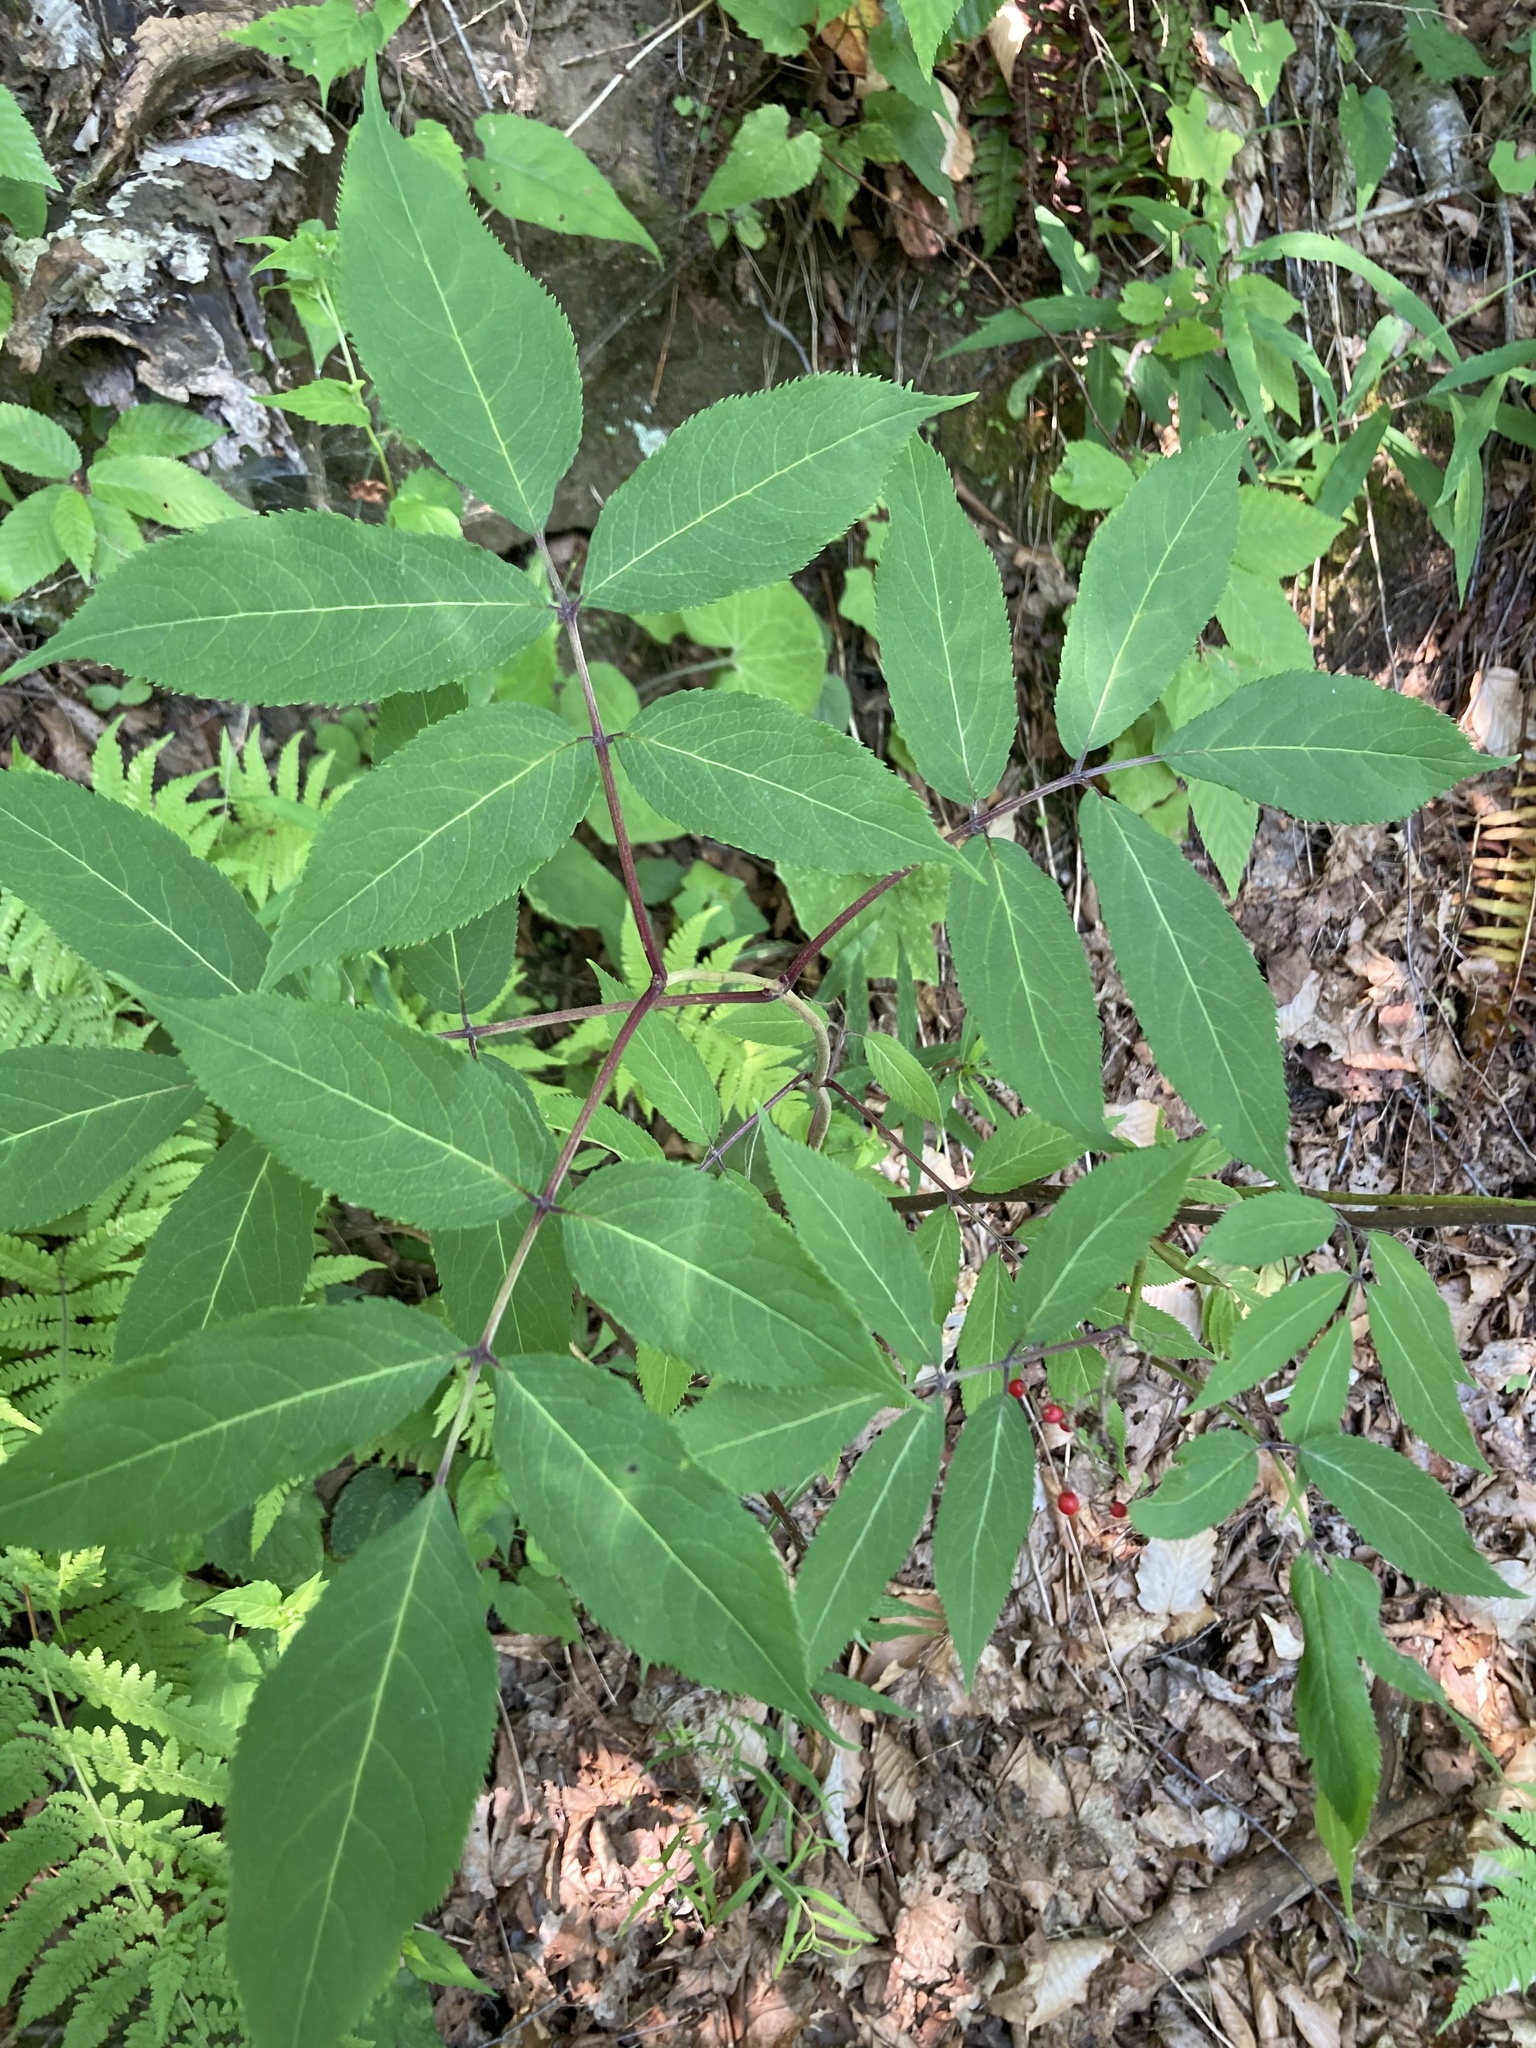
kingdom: Plantae
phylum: Tracheophyta
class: Magnoliopsida
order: Dipsacales
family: Viburnaceae
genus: Sambucus
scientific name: Sambucus racemosa
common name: Red-berried elder
